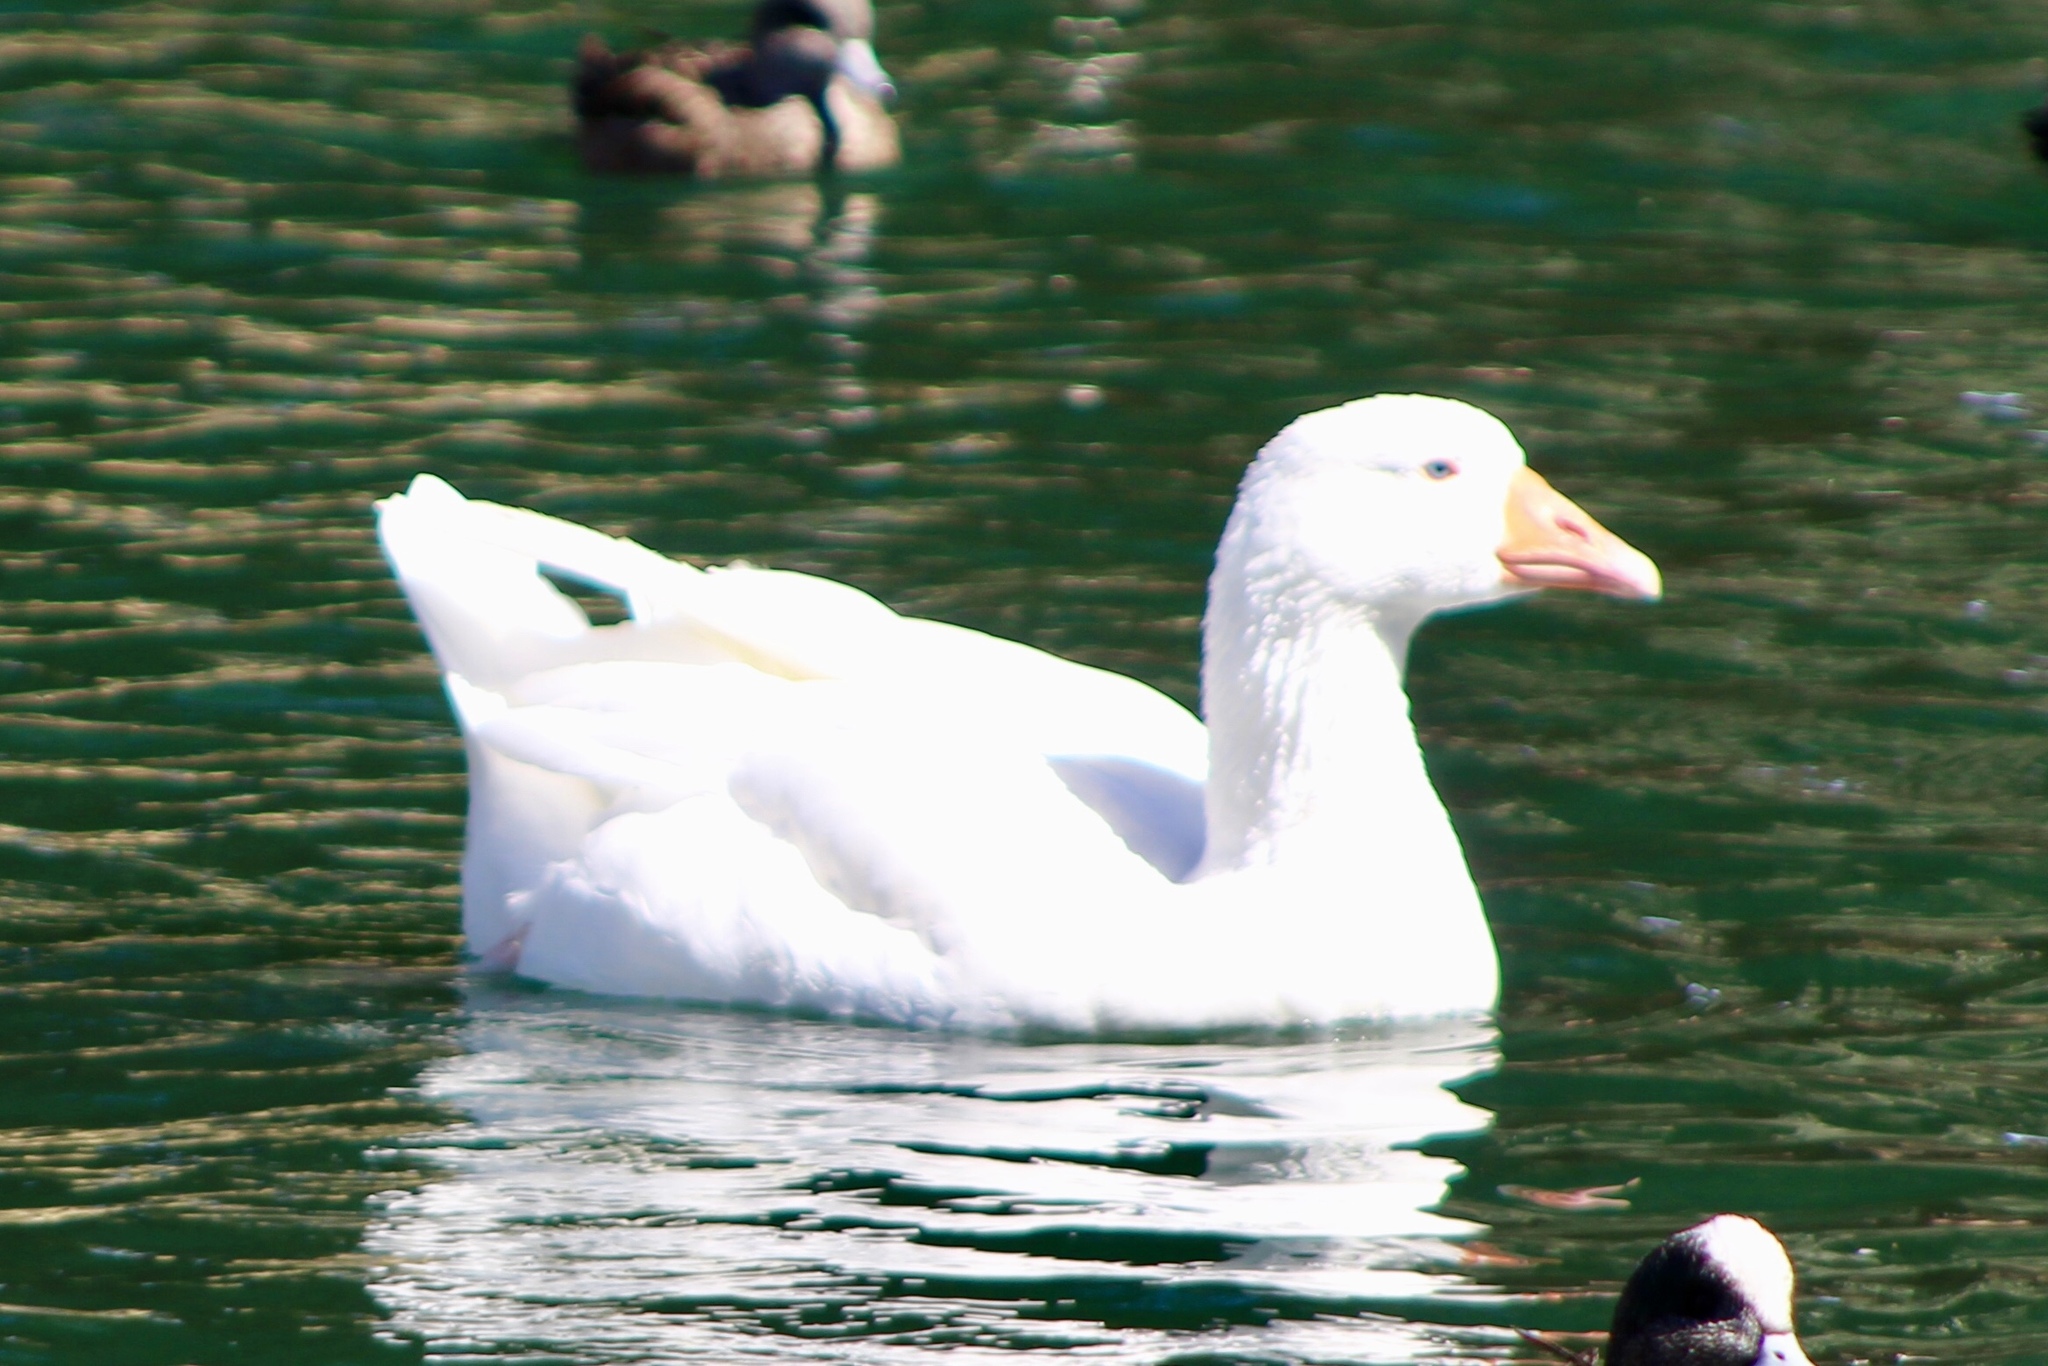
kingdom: Animalia
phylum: Chordata
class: Aves
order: Anseriformes
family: Anatidae
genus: Anser
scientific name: Anser anser
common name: Greylag goose
